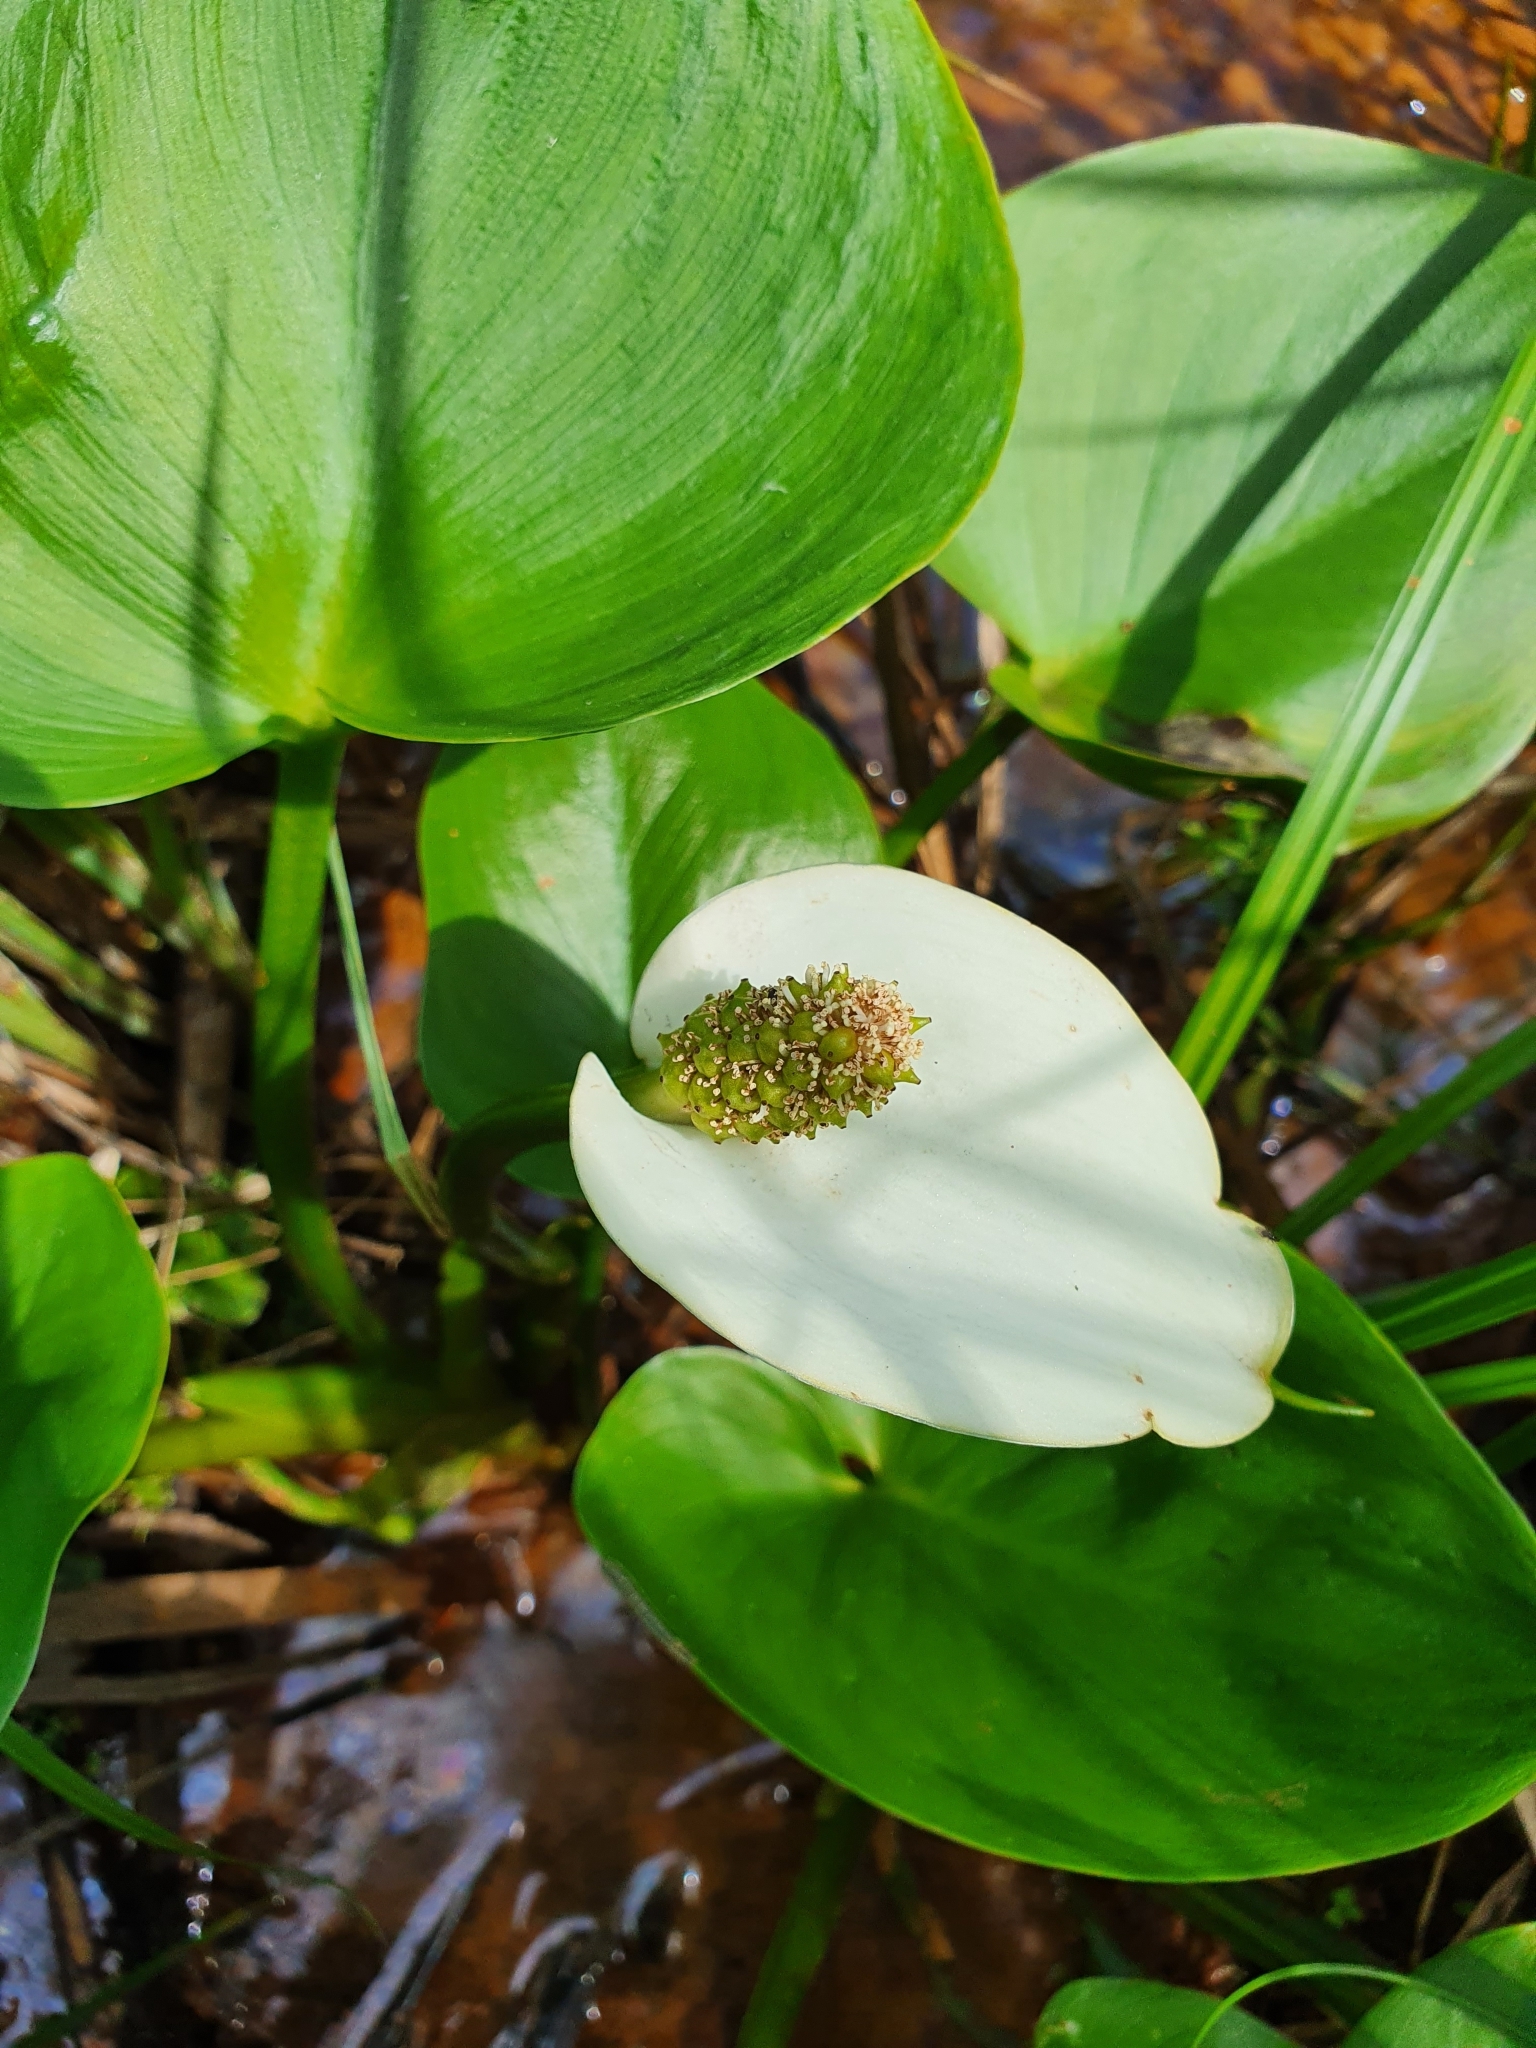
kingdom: Plantae
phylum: Tracheophyta
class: Liliopsida
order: Alismatales
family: Araceae
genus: Calla
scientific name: Calla palustris
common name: Bog arum
